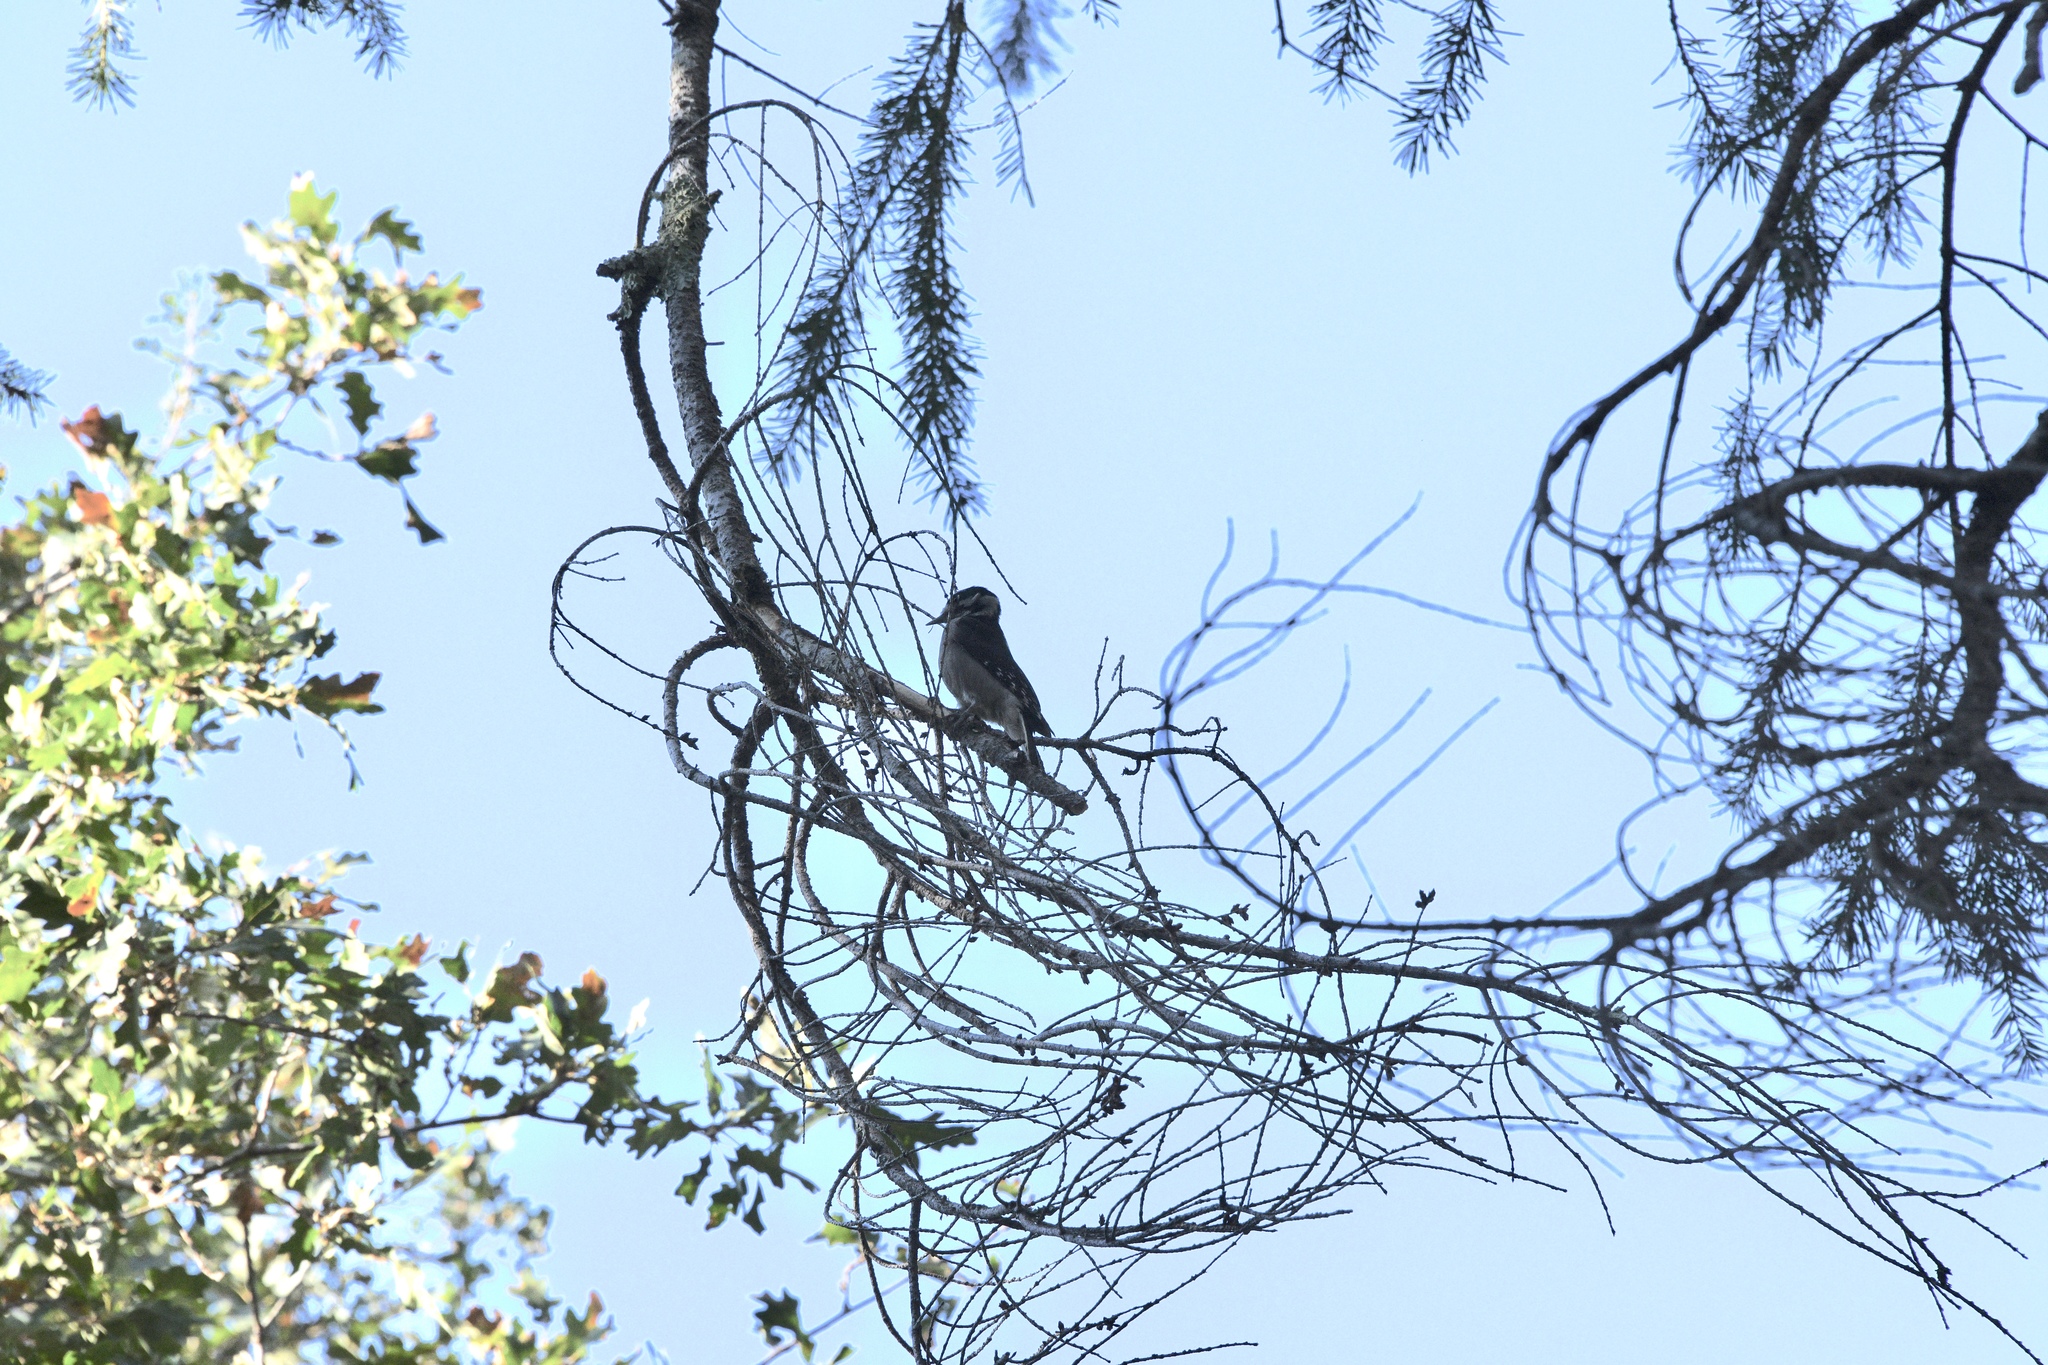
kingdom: Animalia
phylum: Chordata
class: Aves
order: Piciformes
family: Picidae
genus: Dryobates
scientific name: Dryobates pubescens
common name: Downy woodpecker
